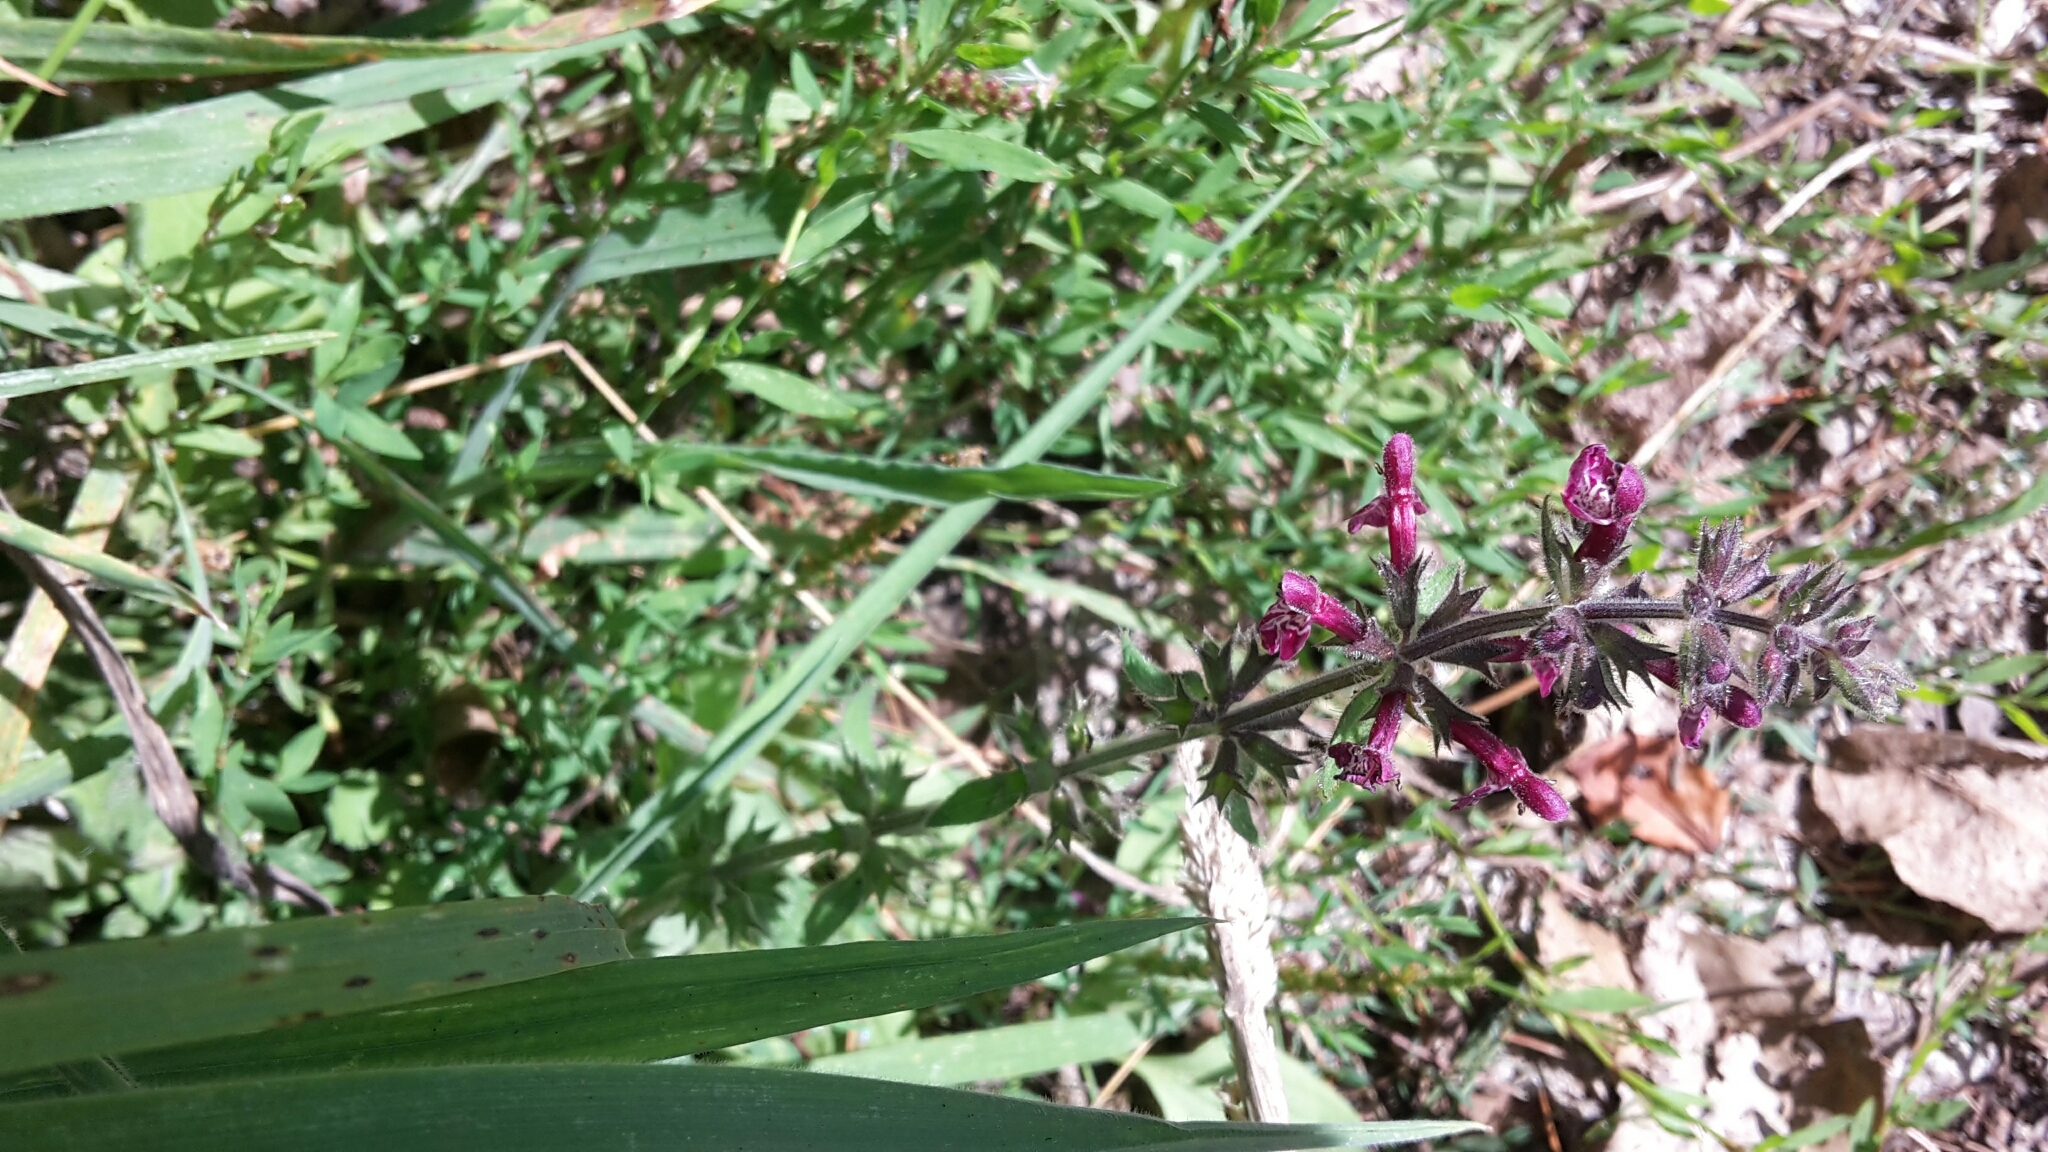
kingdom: Plantae
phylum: Tracheophyta
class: Magnoliopsida
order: Lamiales
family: Lamiaceae
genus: Stachys
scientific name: Stachys sylvatica
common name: Hedge woundwort
